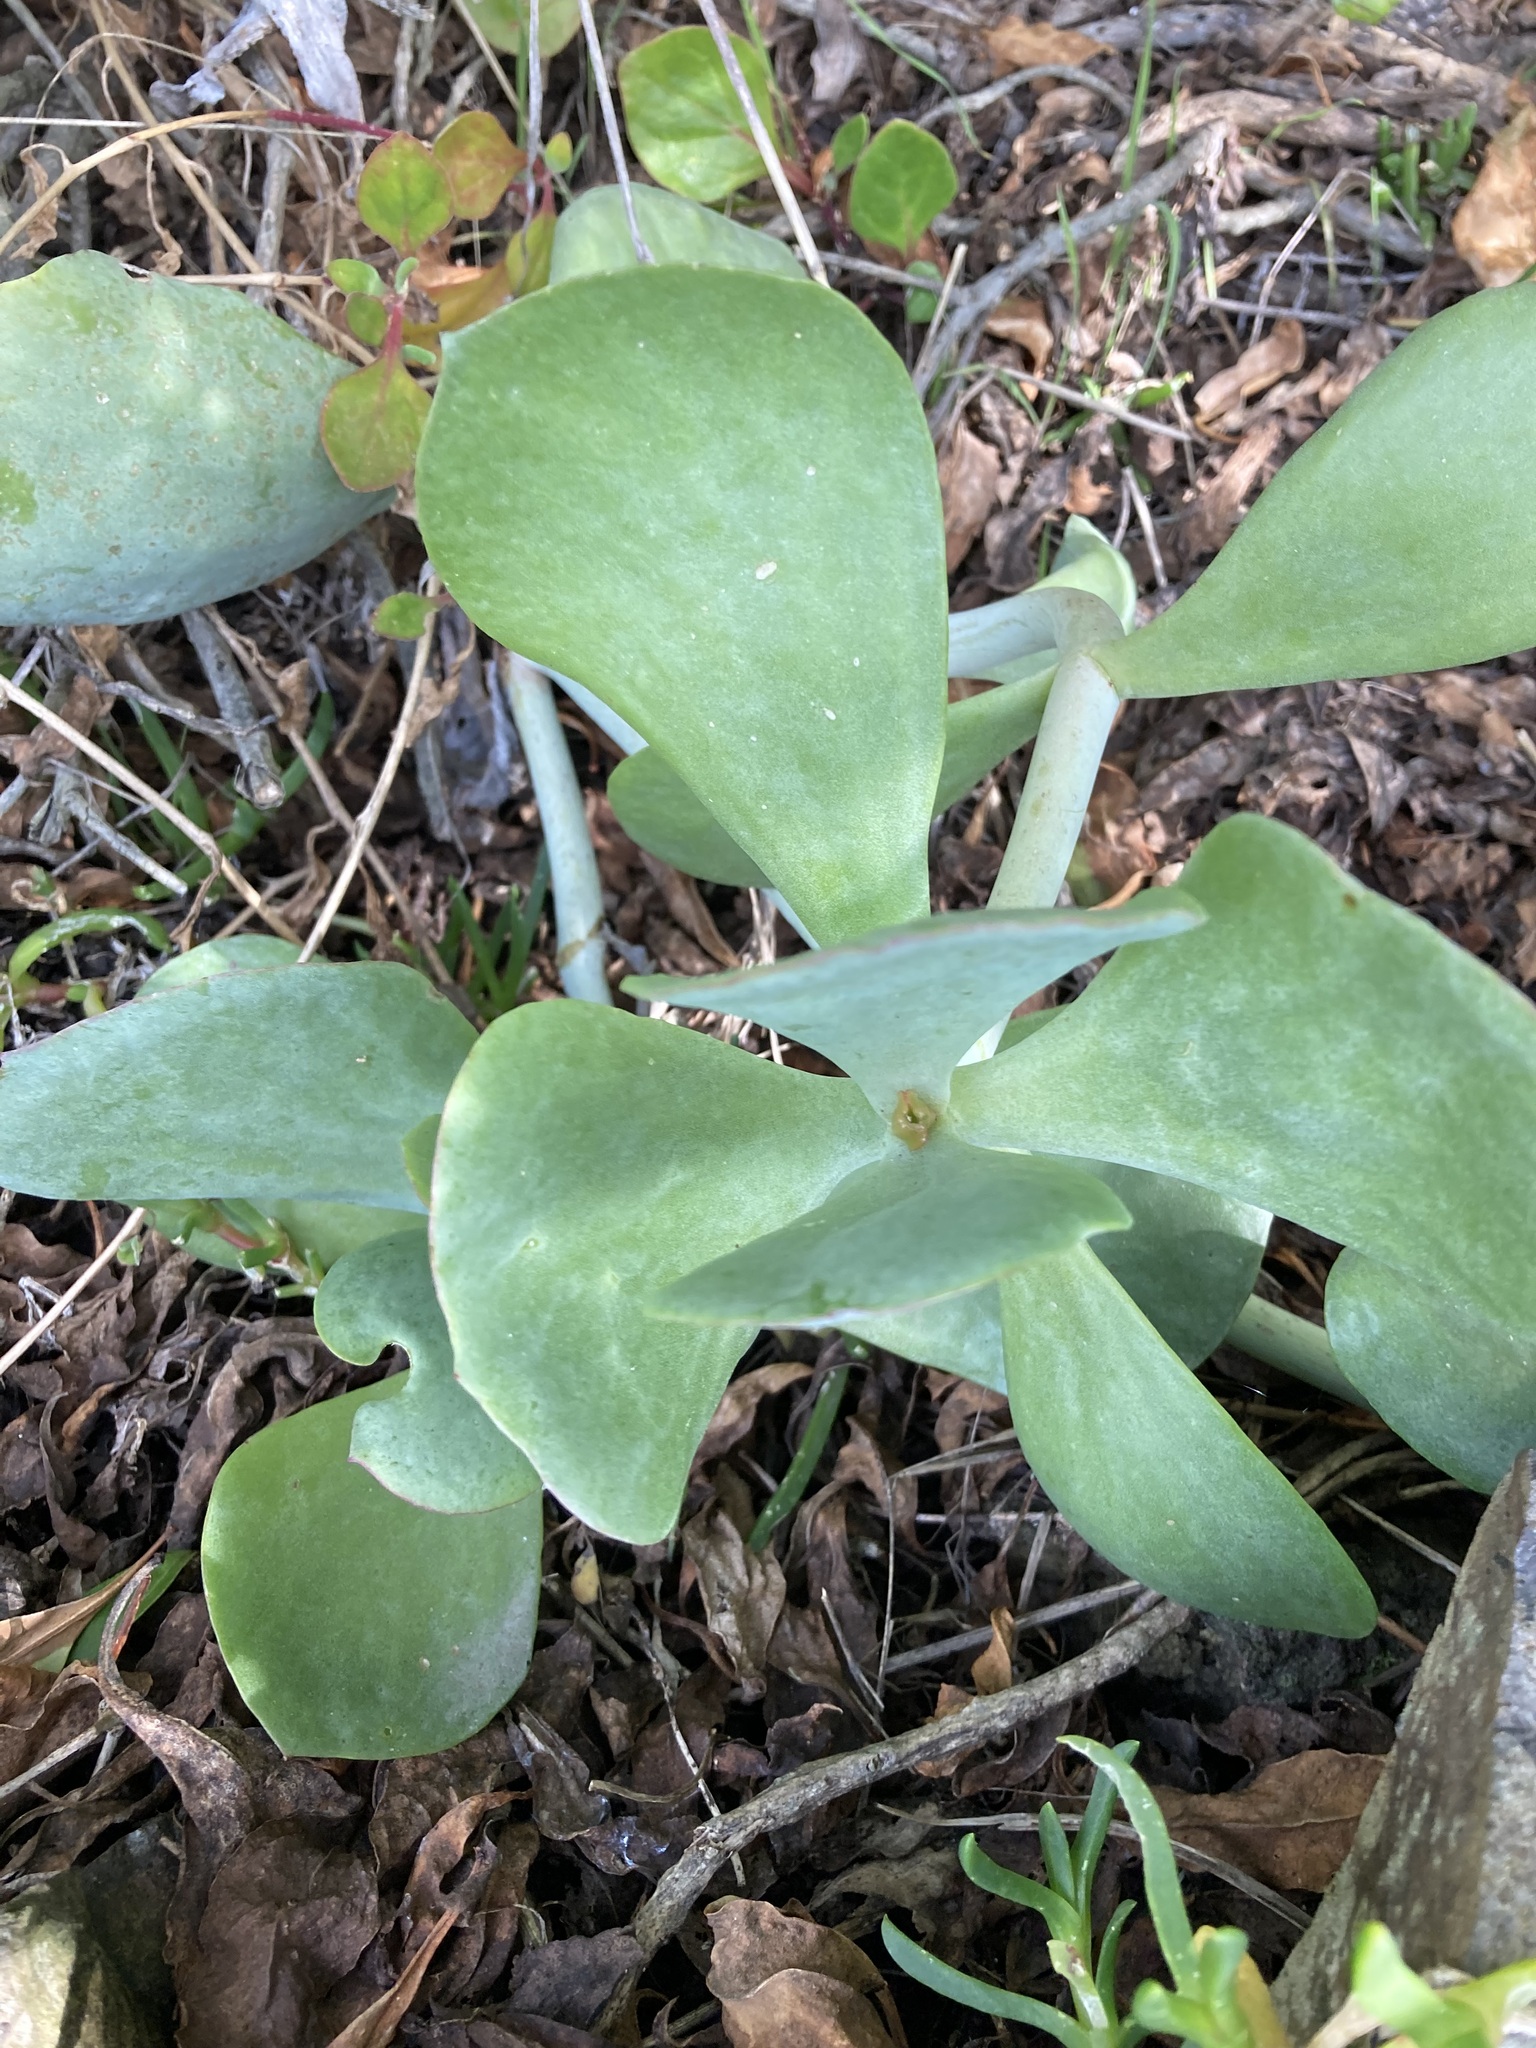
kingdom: Plantae
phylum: Tracheophyta
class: Magnoliopsida
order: Saxifragales
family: Crassulaceae
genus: Cotyledon
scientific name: Cotyledon orbiculata
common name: Pig's ear
